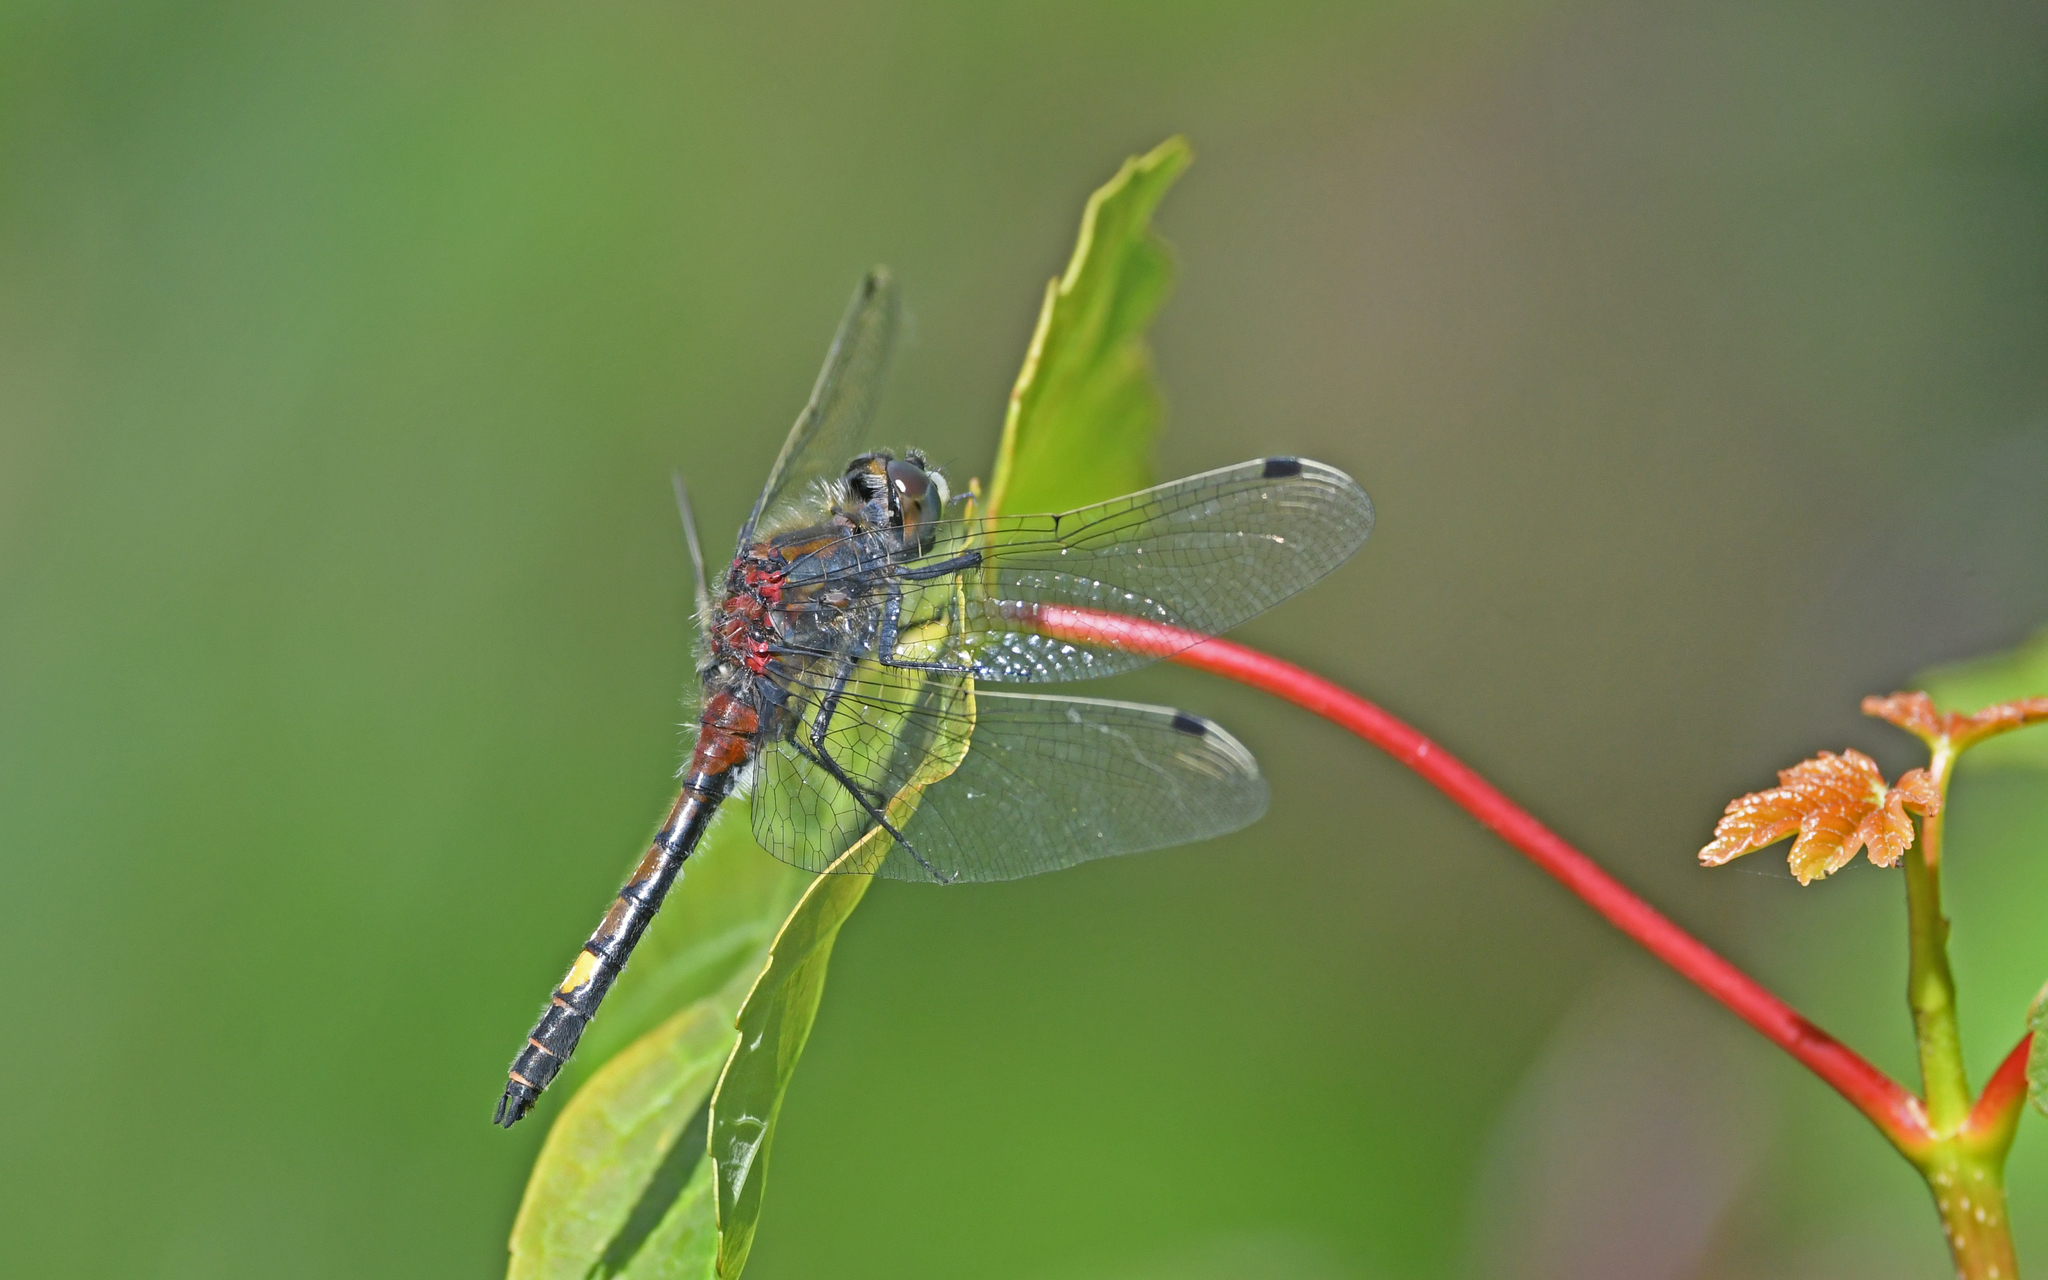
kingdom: Animalia
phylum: Arthropoda
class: Insecta
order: Odonata
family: Libellulidae
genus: Leucorrhinia
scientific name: Leucorrhinia pectoralis
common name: Yellow-spotted whiteface
